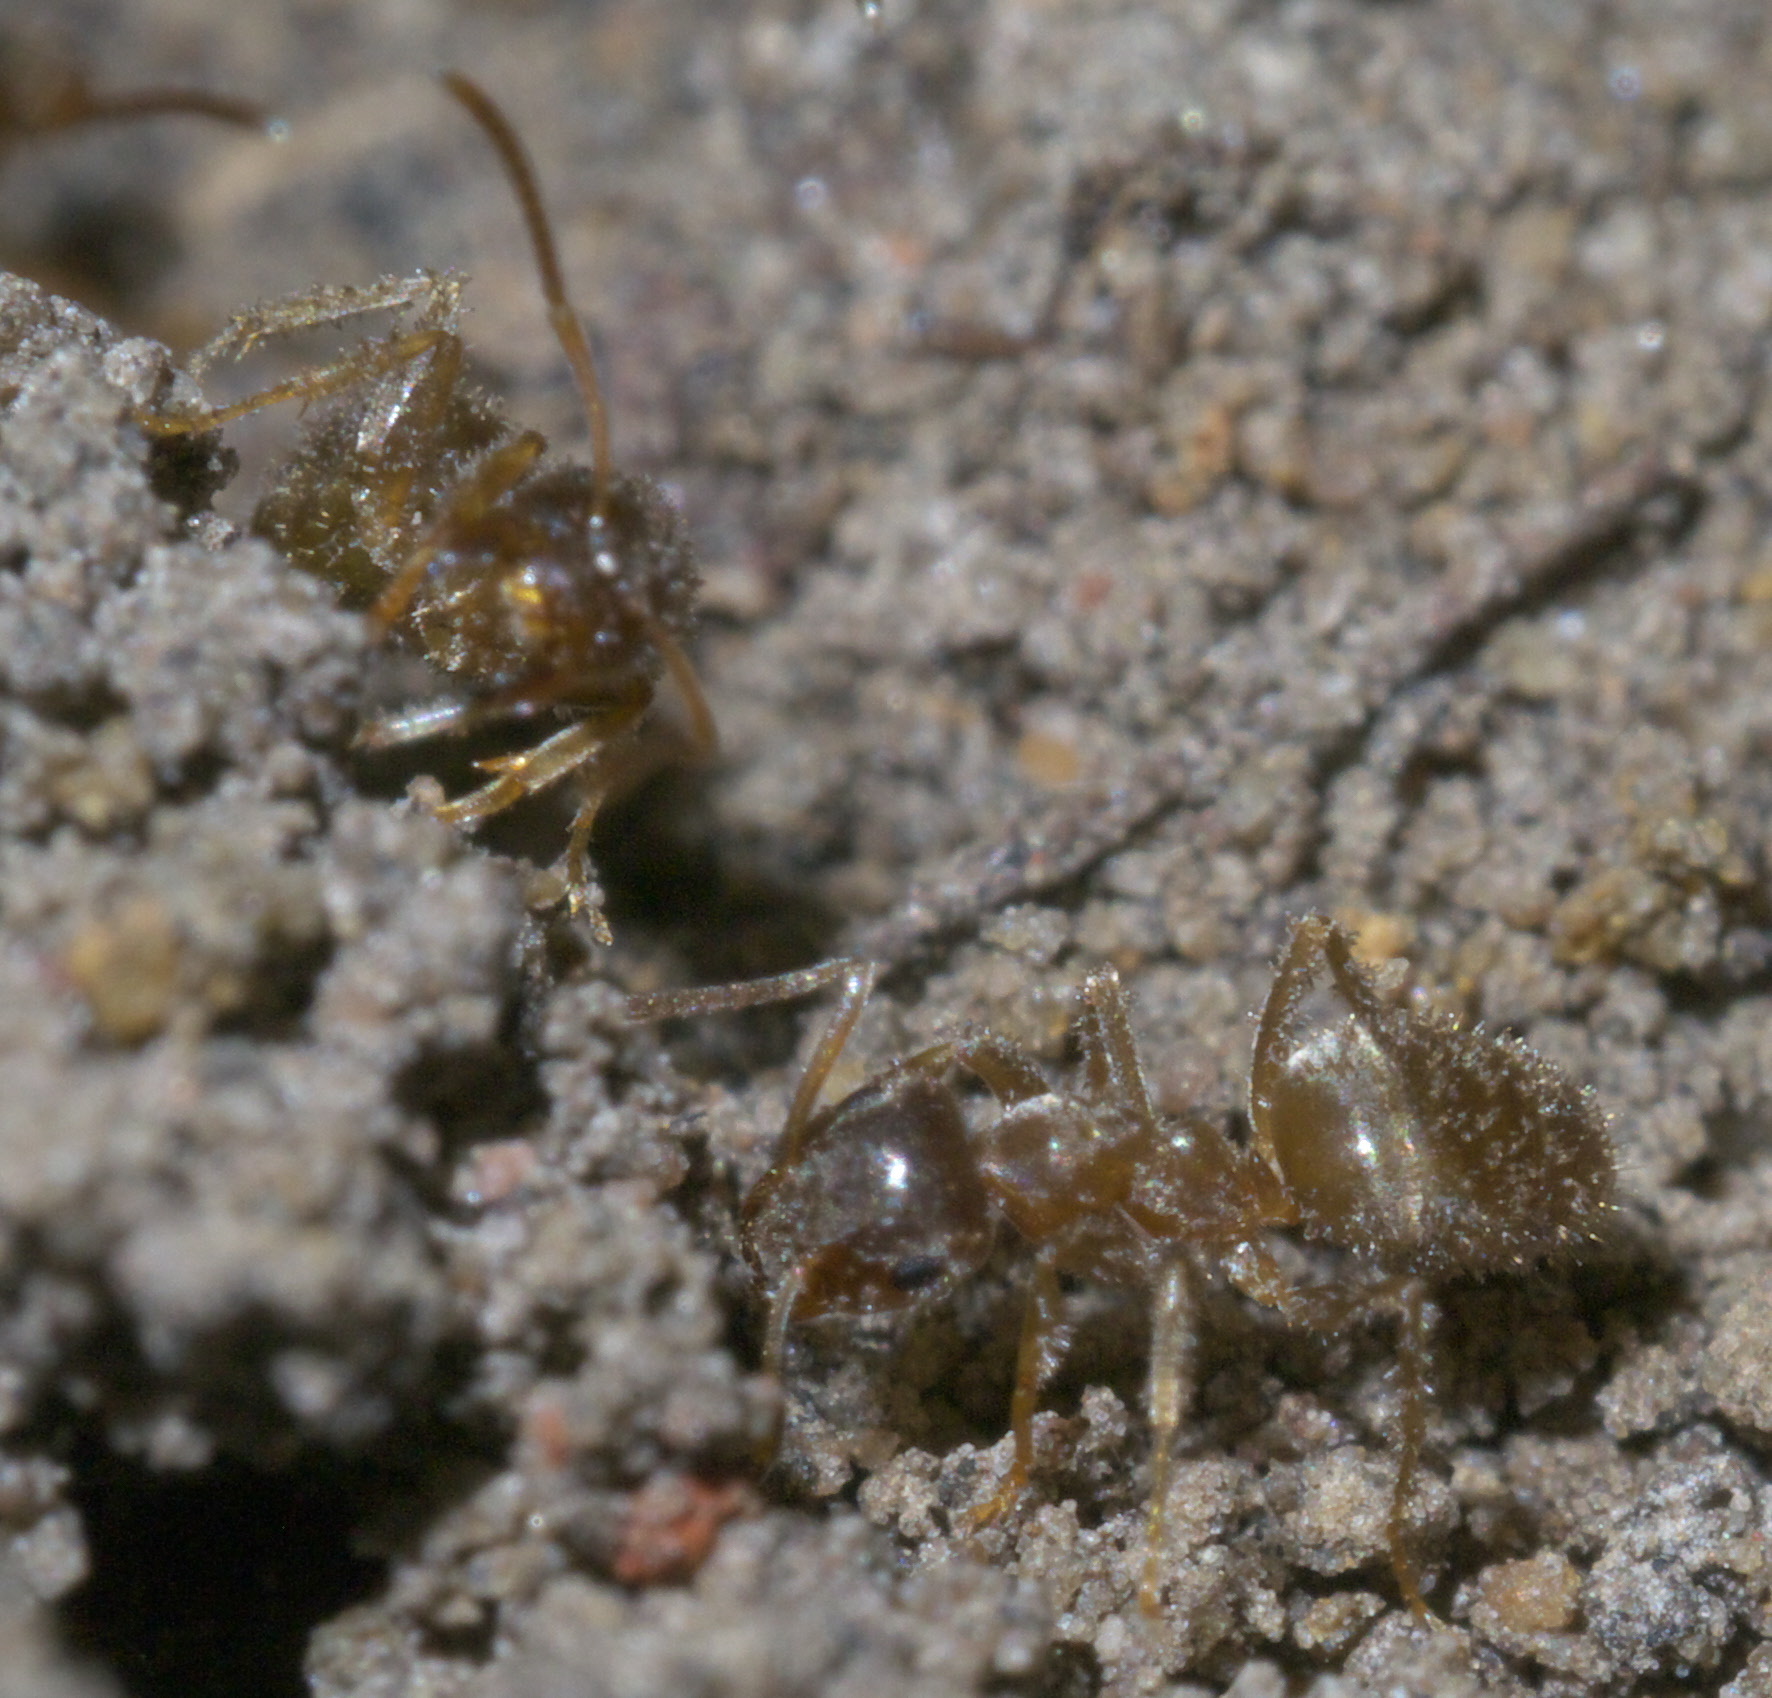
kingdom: Animalia
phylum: Arthropoda
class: Insecta
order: Hymenoptera
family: Formicidae
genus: Lasius
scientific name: Lasius neoniger
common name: Turfgrass ant
